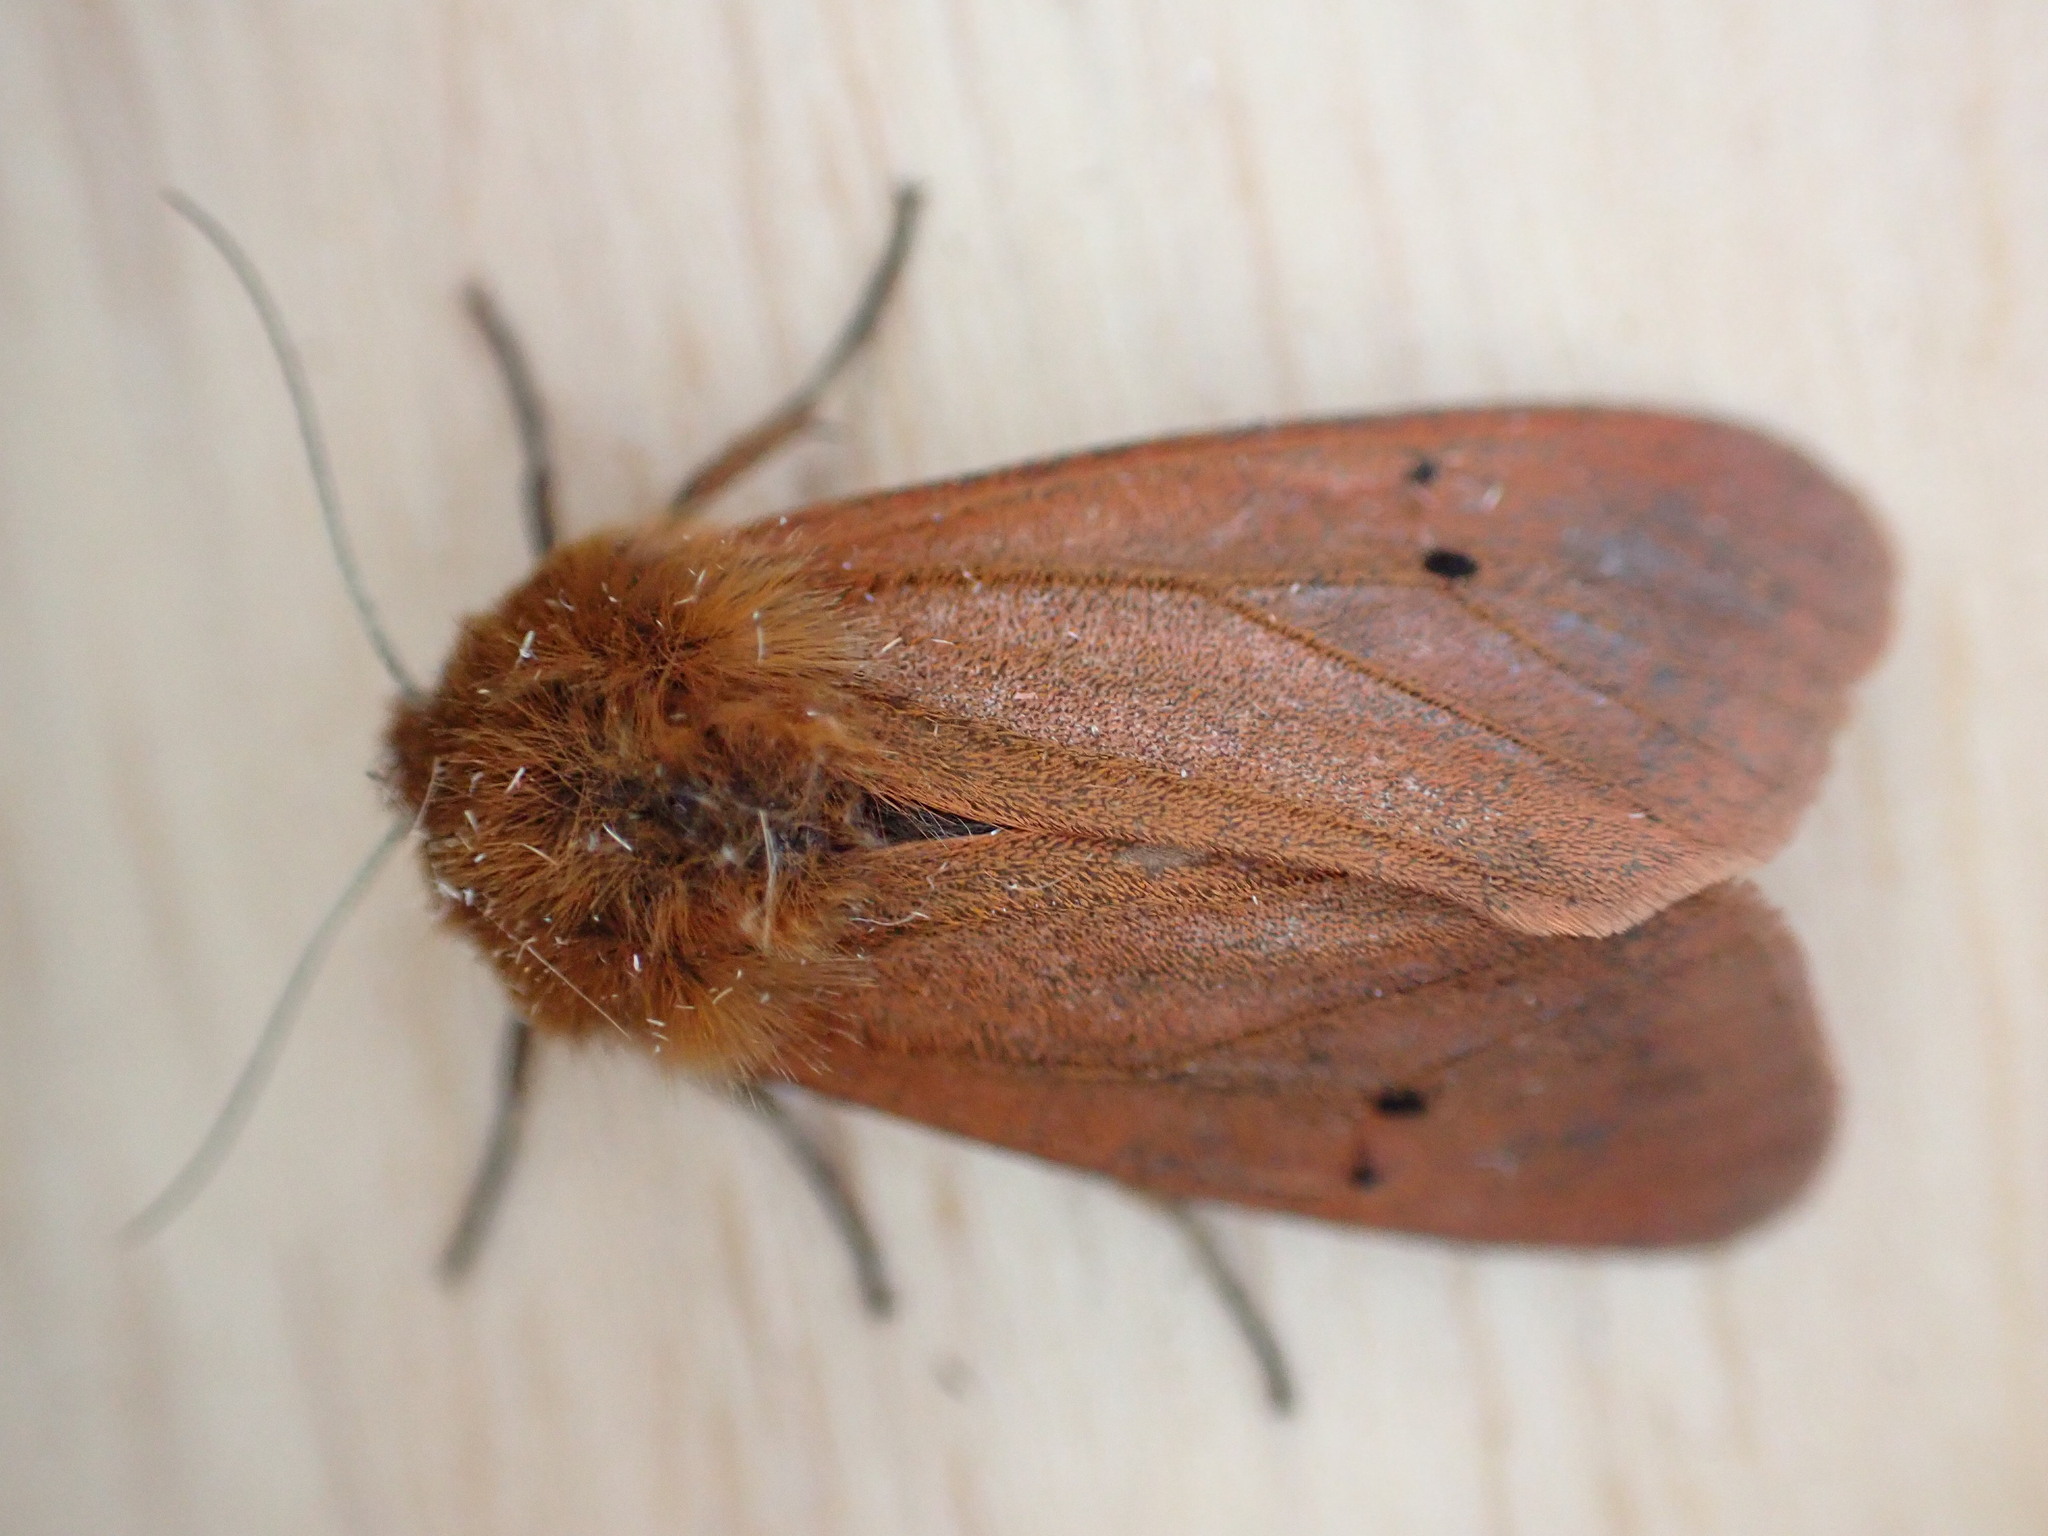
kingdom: Animalia
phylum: Arthropoda
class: Insecta
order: Lepidoptera
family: Erebidae
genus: Phragmatobia
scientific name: Phragmatobia fuliginosa
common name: Ruby tiger
